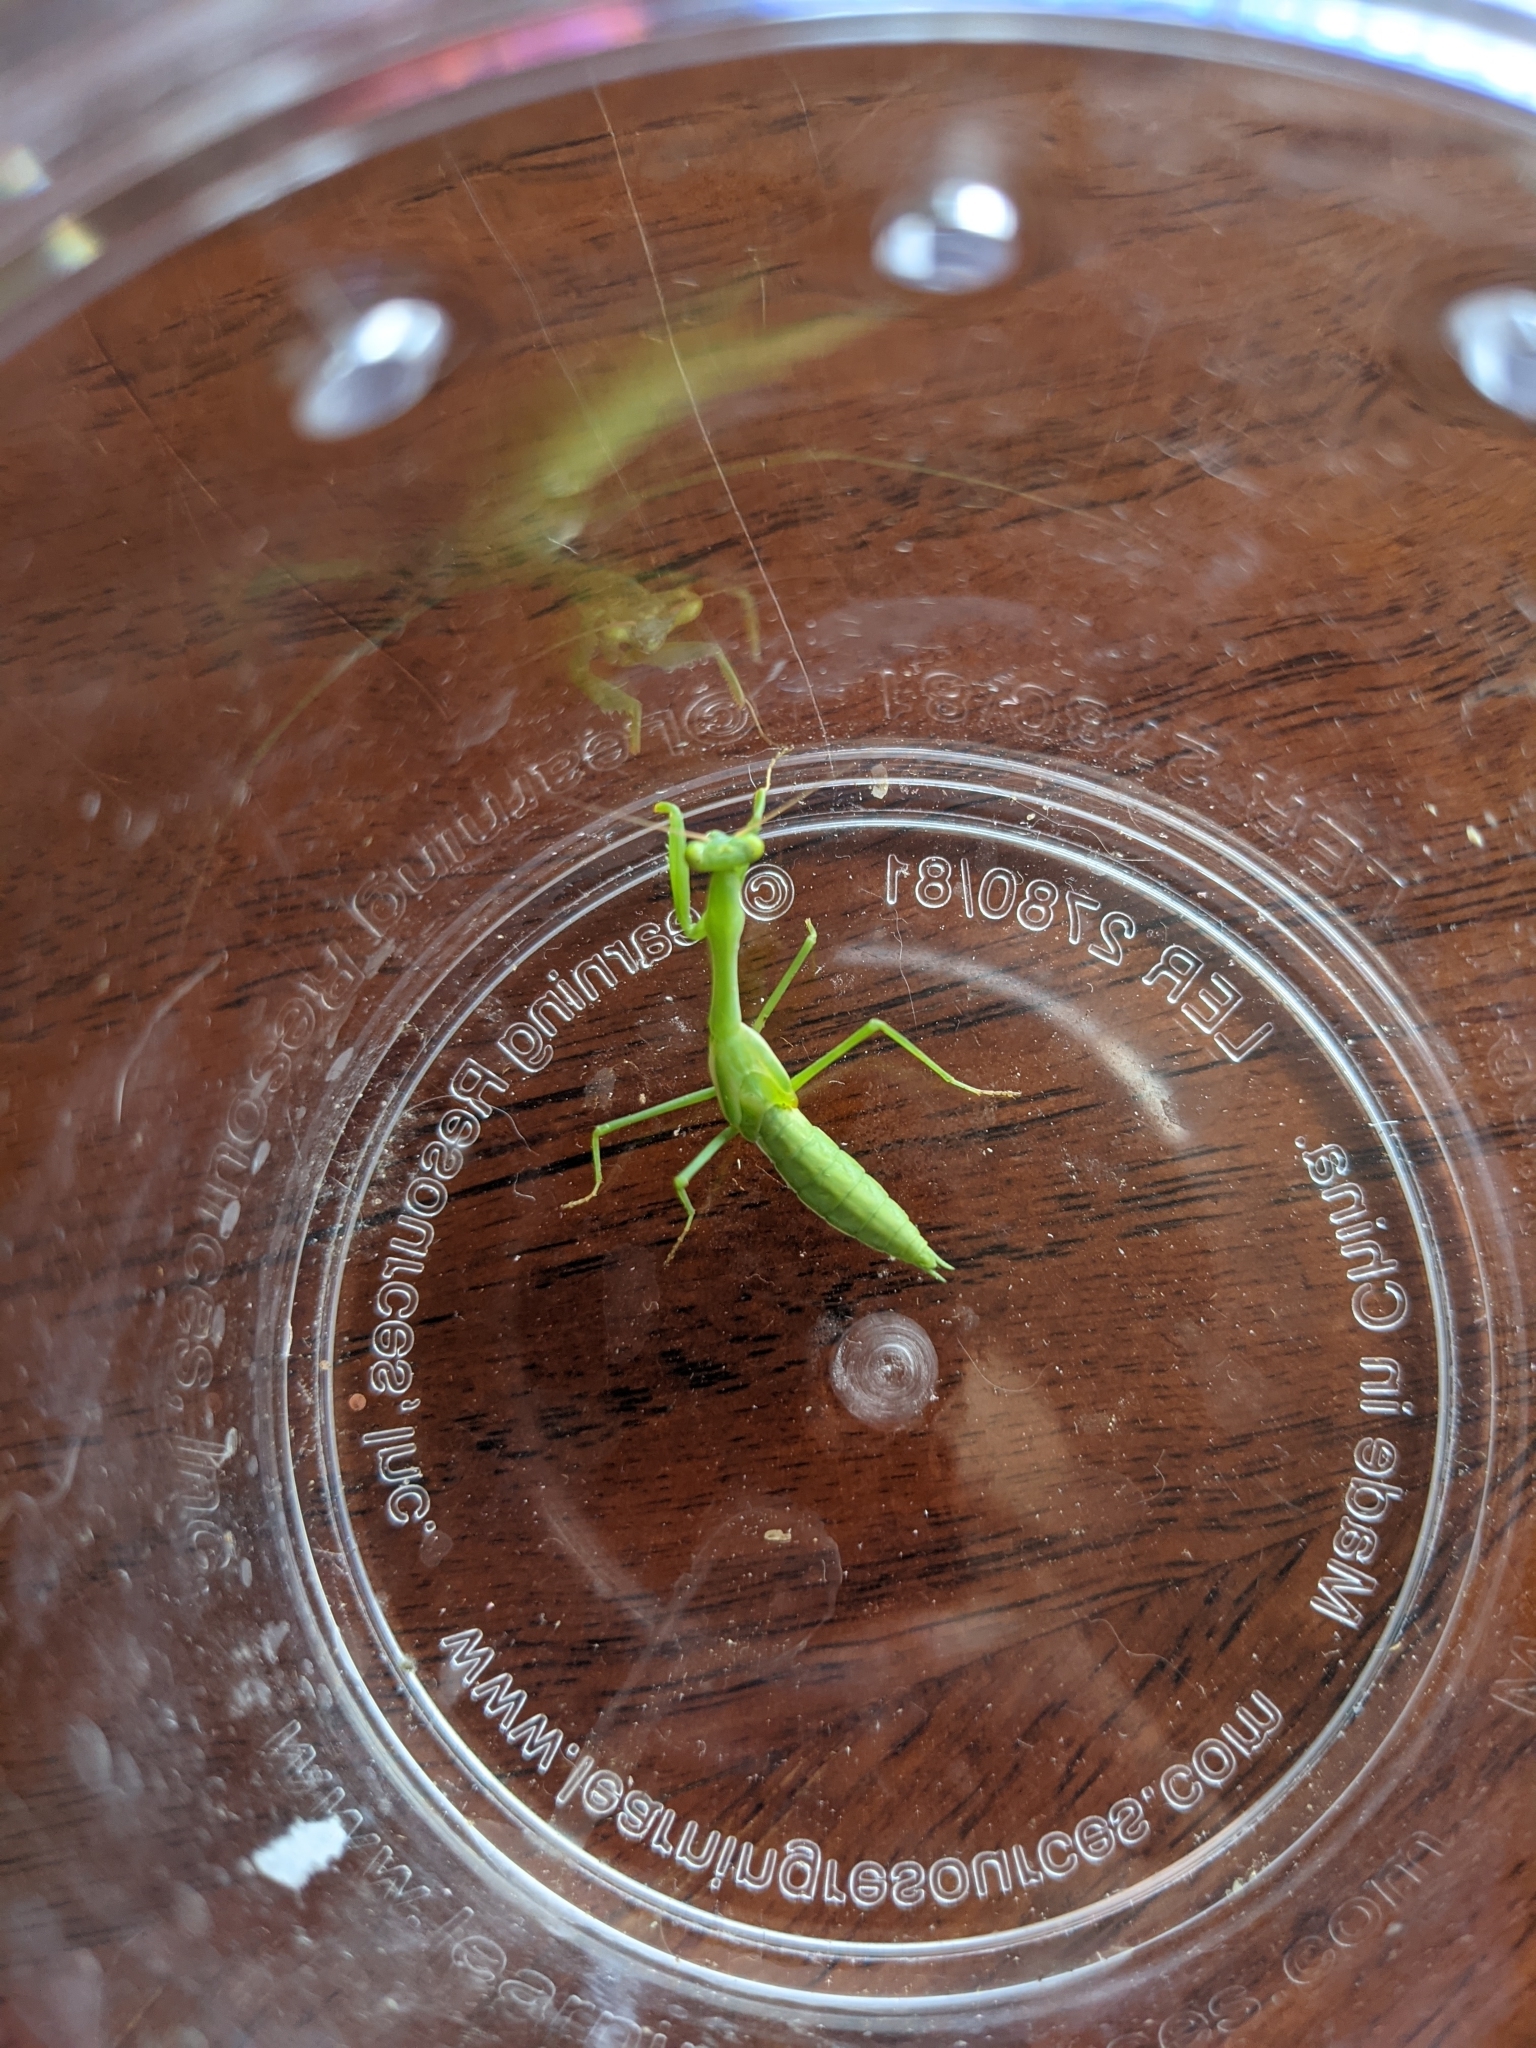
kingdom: Animalia
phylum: Arthropoda
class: Insecta
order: Mantodea
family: Miomantidae
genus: Miomantis
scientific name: Miomantis caffra
